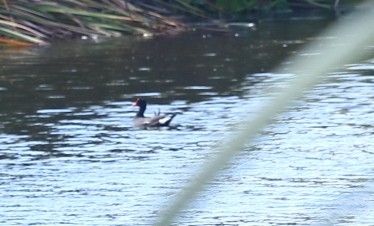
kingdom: Animalia
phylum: Chordata
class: Aves
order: Gruiformes
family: Rallidae
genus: Gallinula
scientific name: Gallinula chloropus
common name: Common moorhen
